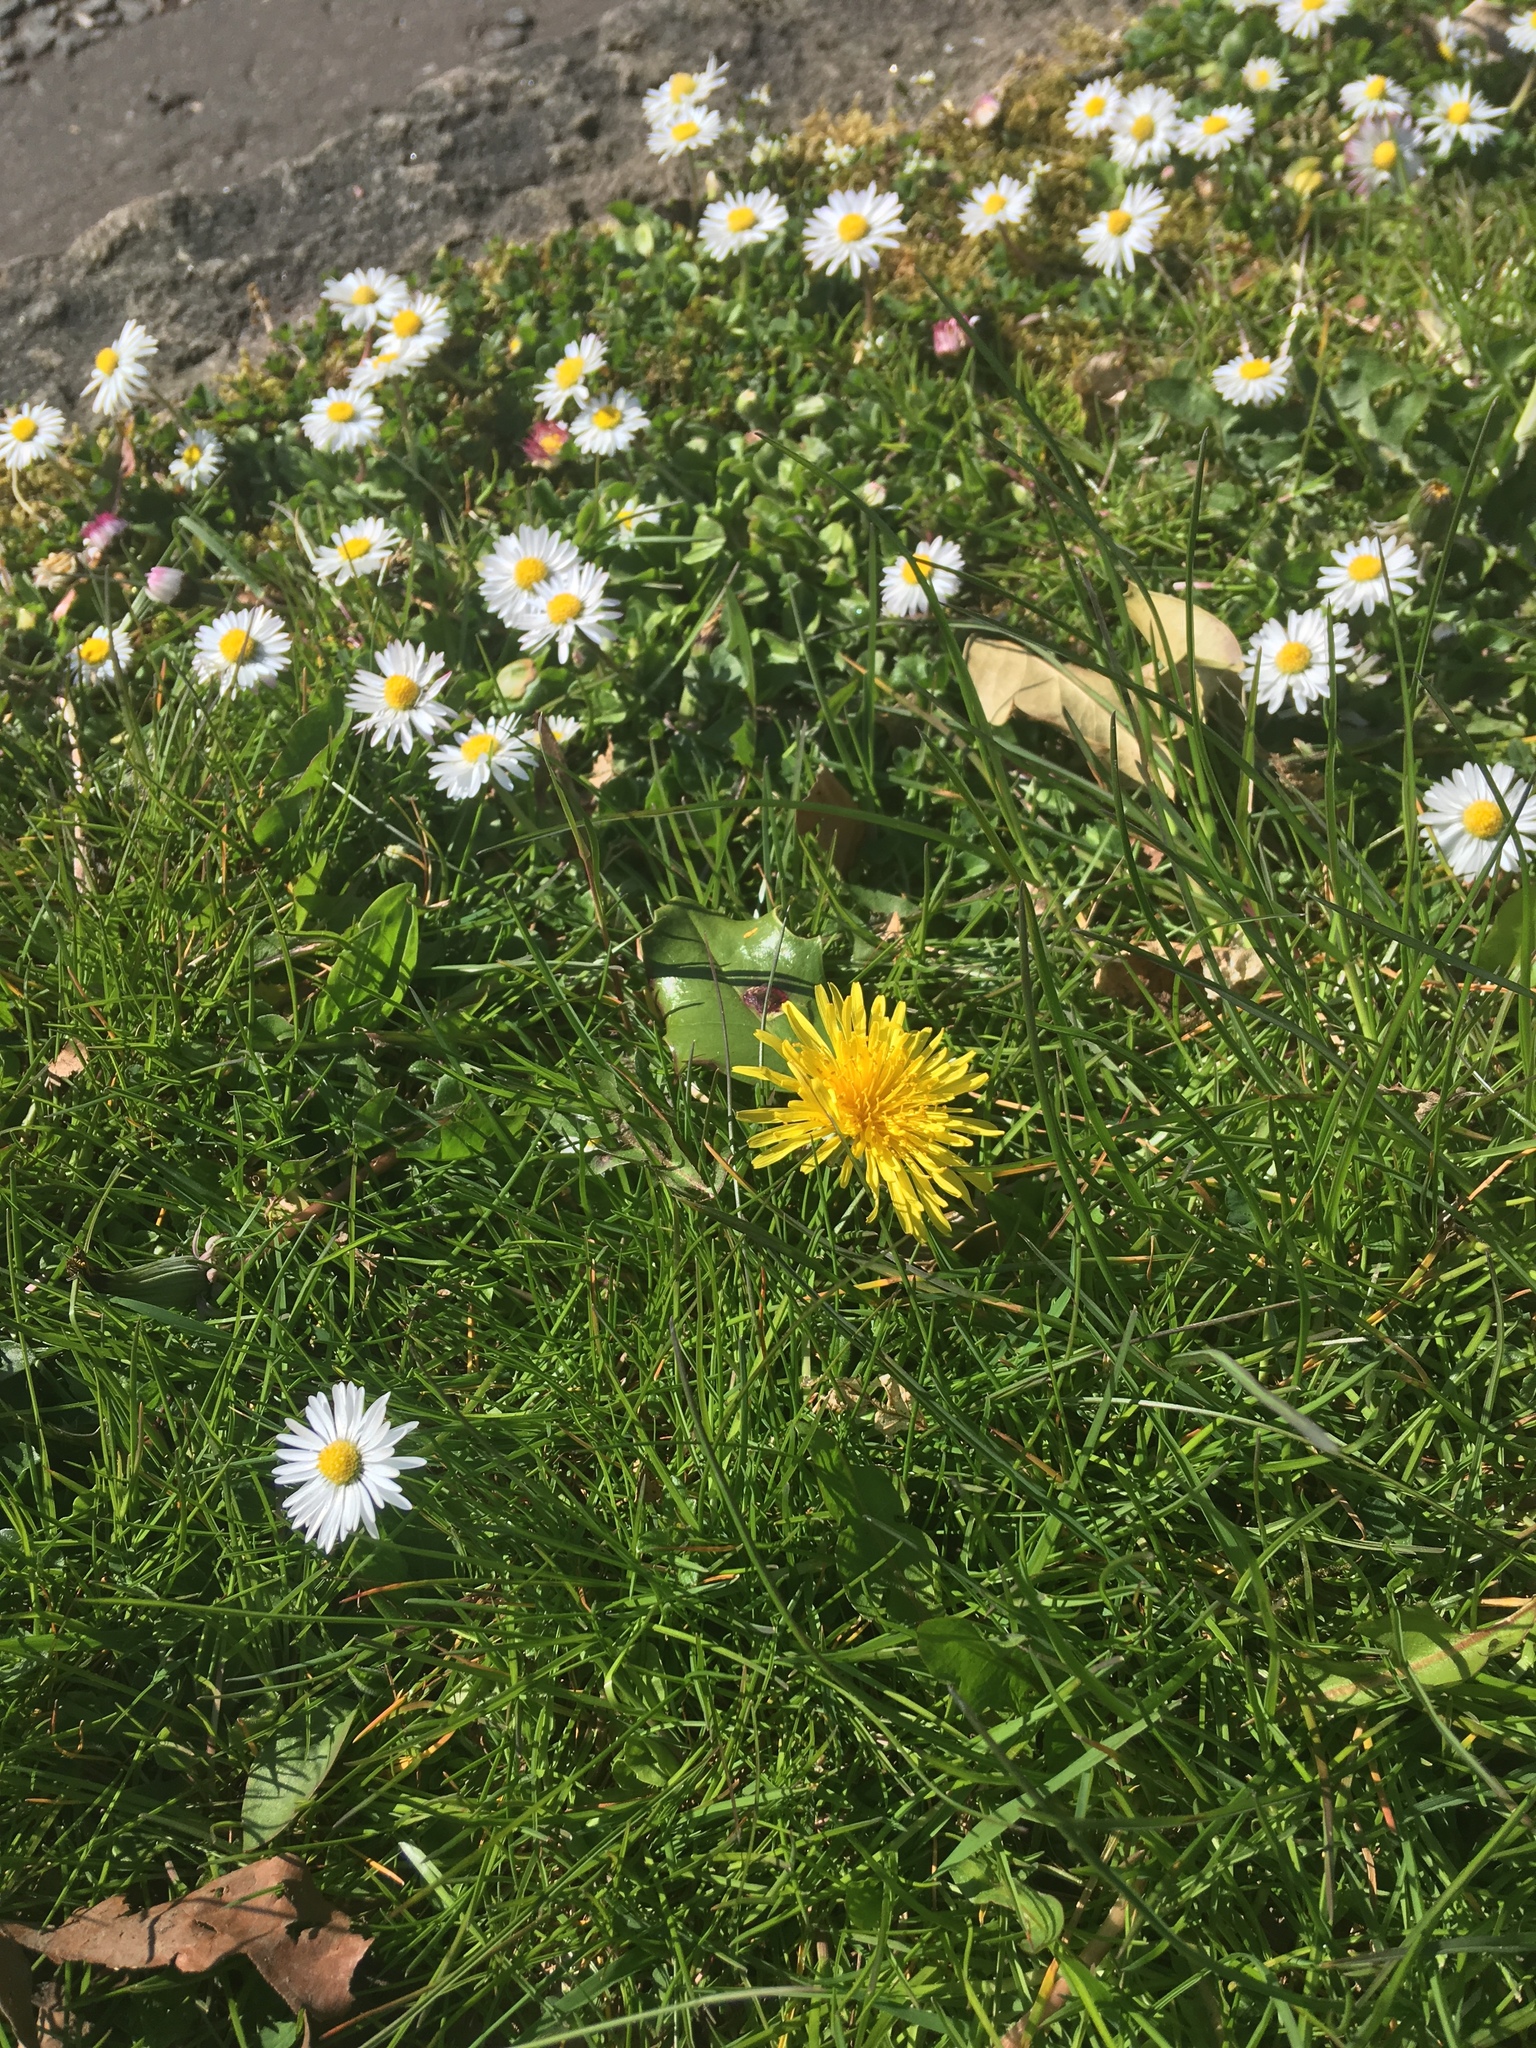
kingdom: Plantae
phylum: Tracheophyta
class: Magnoliopsida
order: Asterales
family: Asteraceae
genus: Bellis
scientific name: Bellis perennis
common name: Lawndaisy
